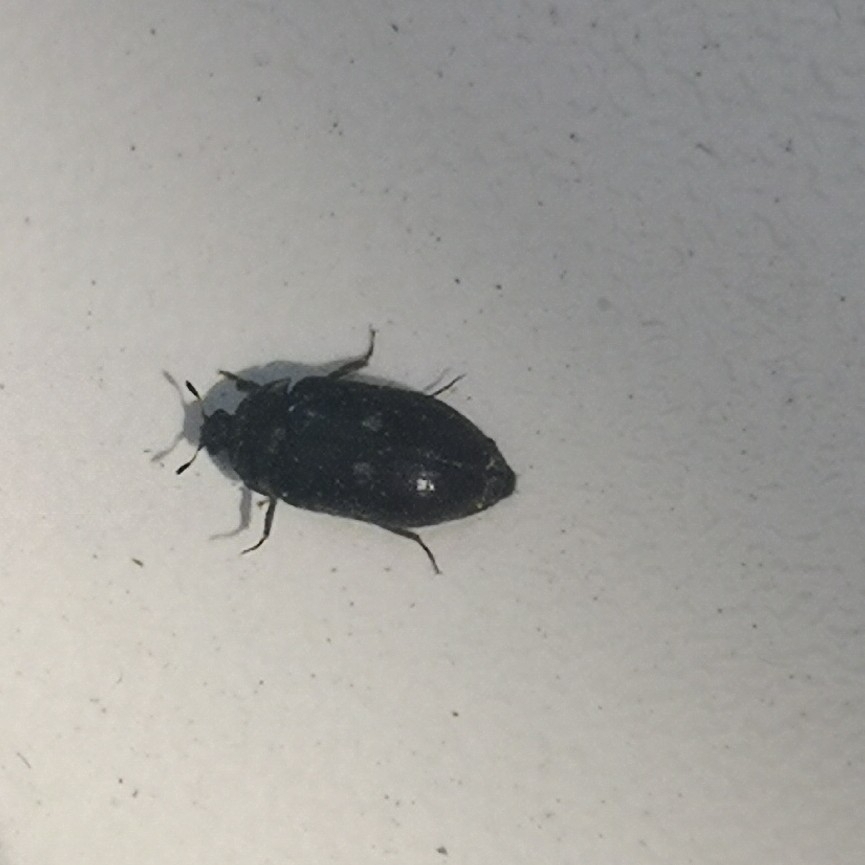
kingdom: Animalia
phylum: Arthropoda
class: Insecta
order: Coleoptera
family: Dermestidae
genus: Attagenus
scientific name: Attagenus pellio
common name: Two-spotted carpet beetle
